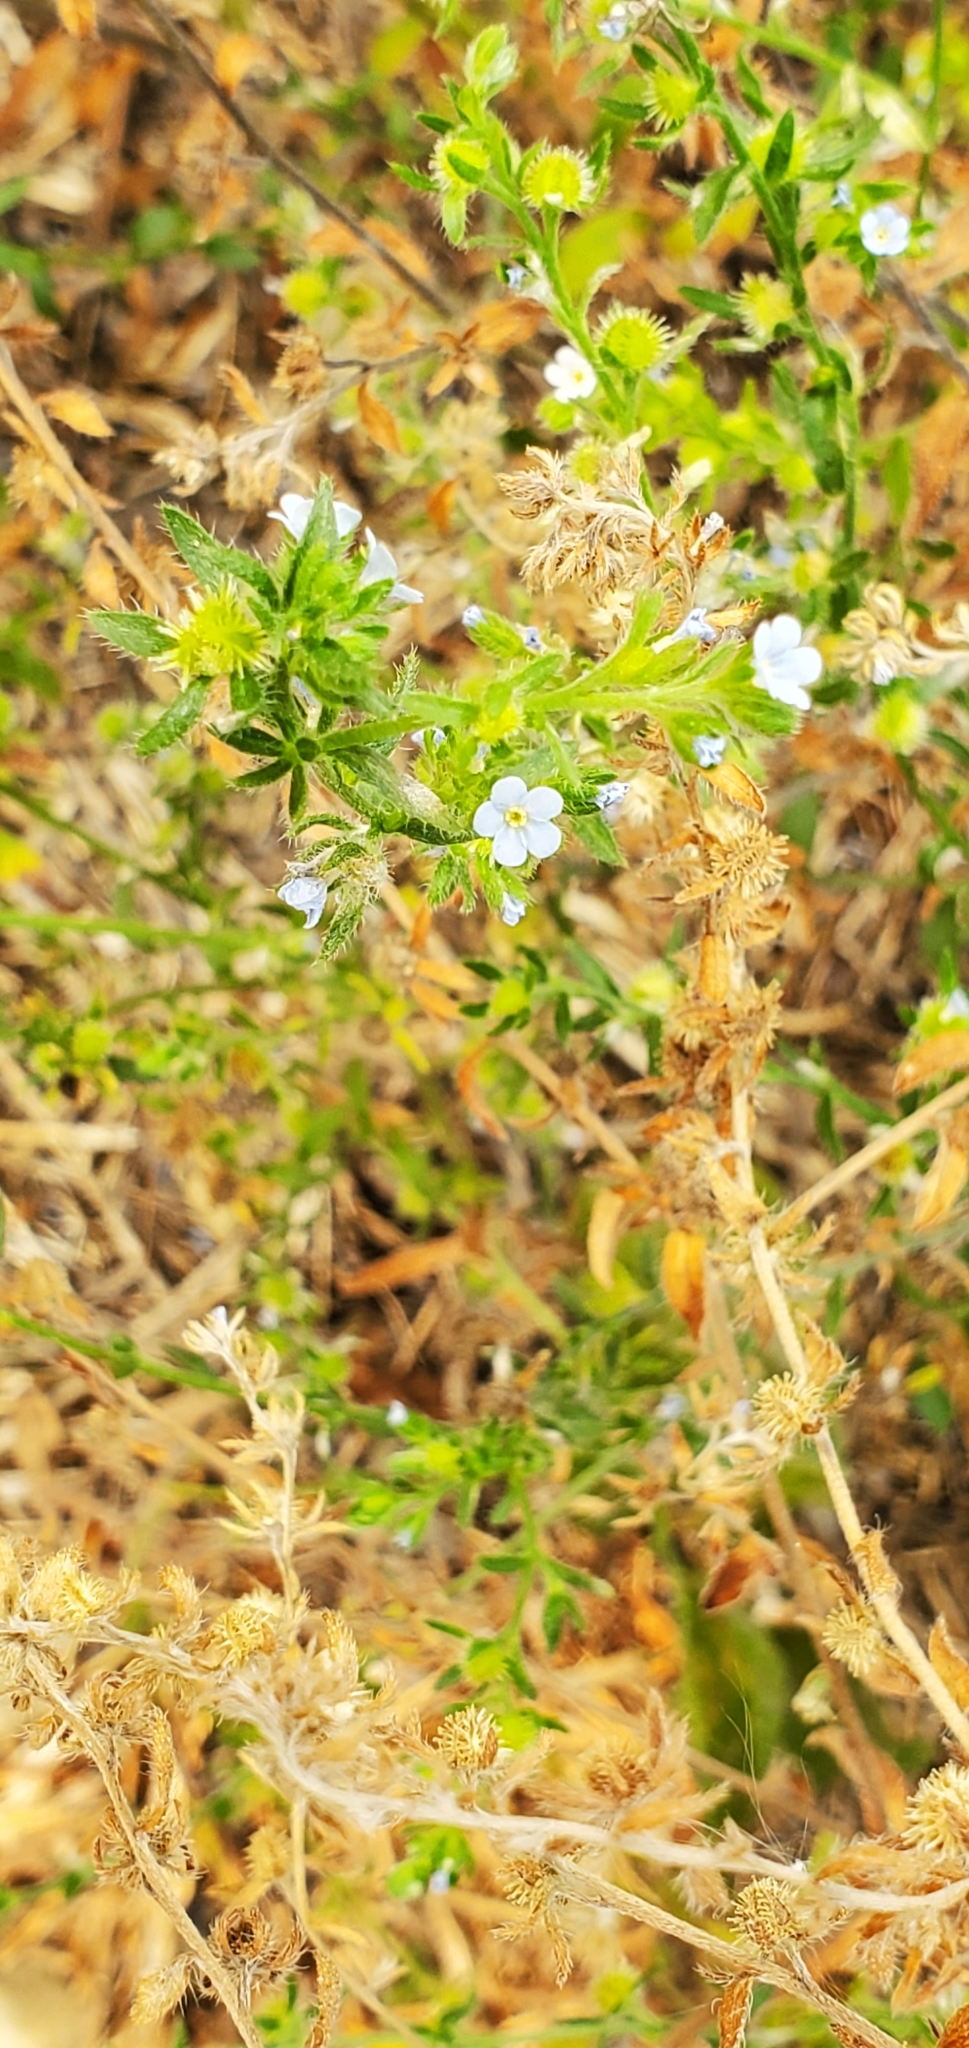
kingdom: Plantae
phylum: Tracheophyta
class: Magnoliopsida
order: Boraginales
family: Boraginaceae
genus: Lappula
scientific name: Lappula squarrosa
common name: European stickseed
